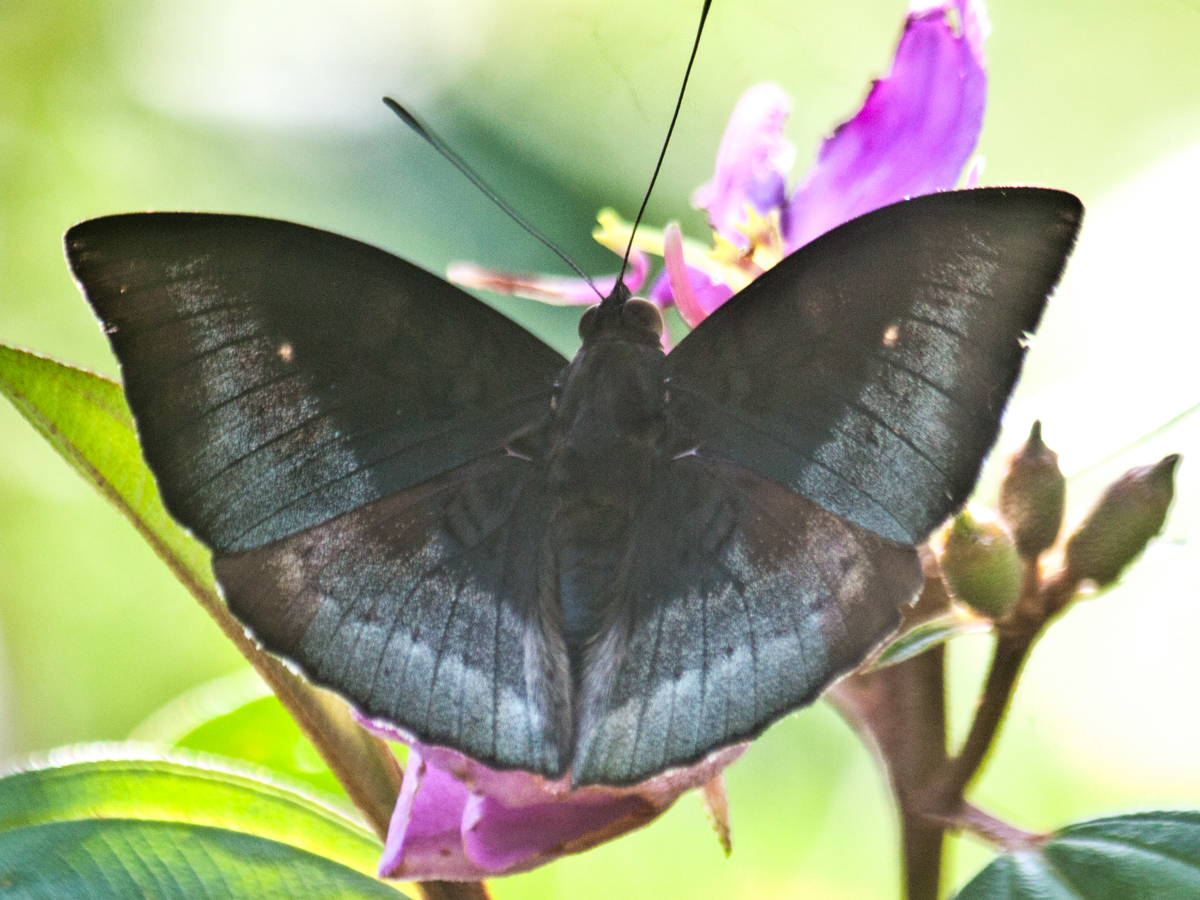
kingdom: Animalia
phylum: Arthropoda
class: Insecta
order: Lepidoptera
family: Nymphalidae
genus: Euthalia
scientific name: Euthalia monina
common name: Powdered baron
